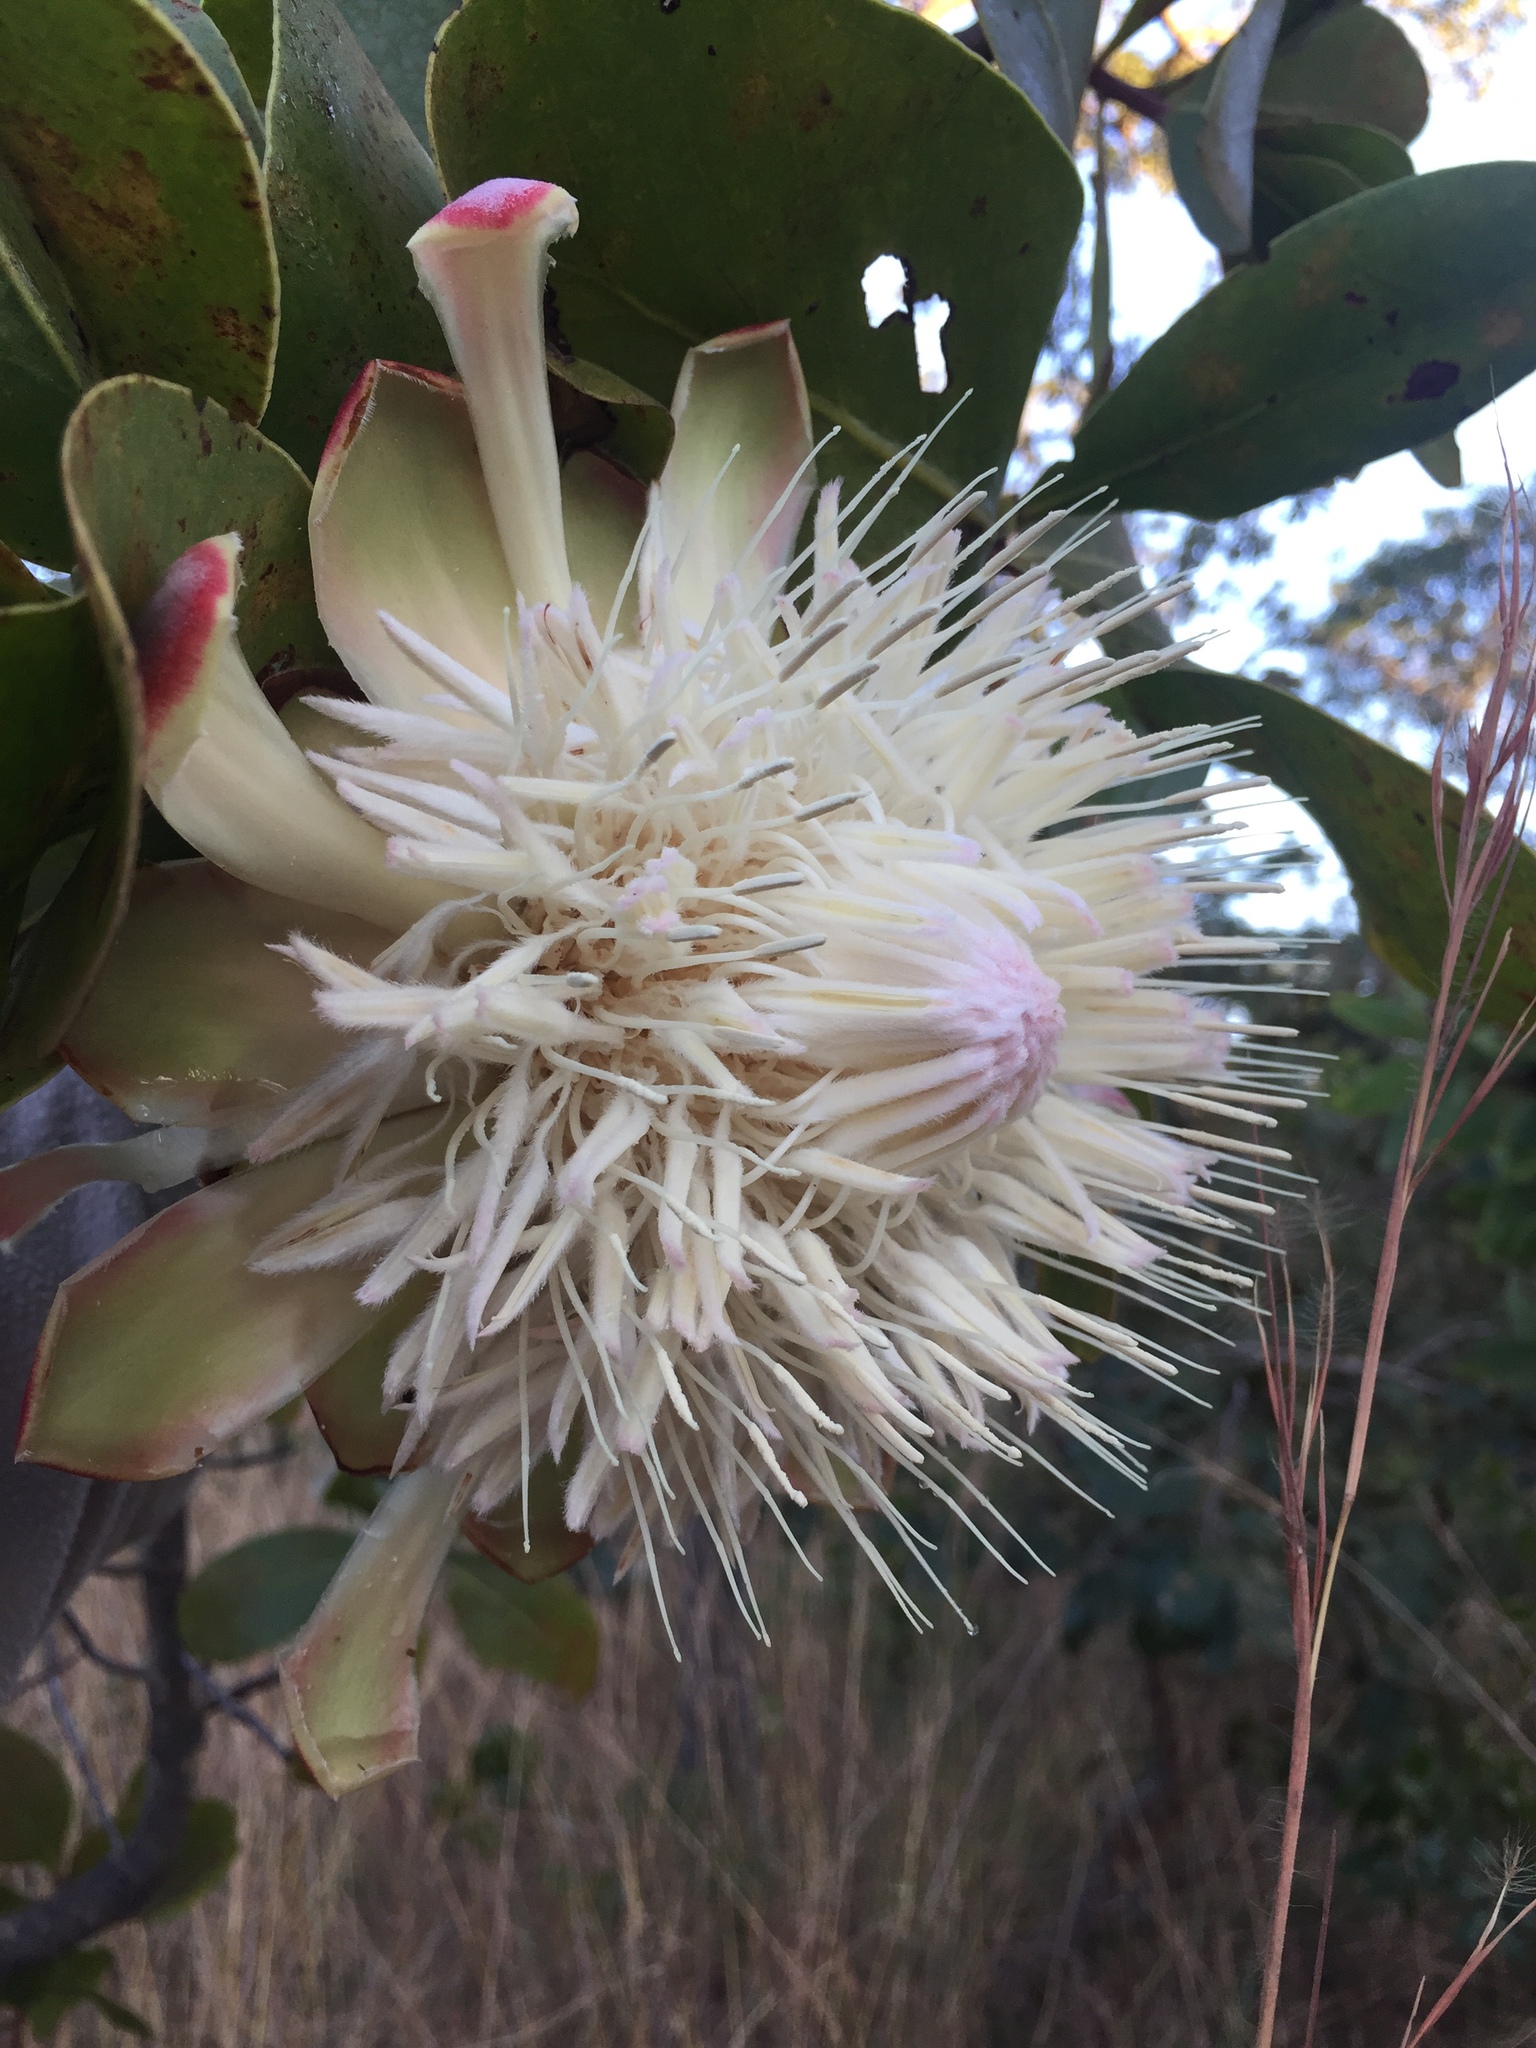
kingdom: Plantae
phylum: Tracheophyta
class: Magnoliopsida
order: Proteales
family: Proteaceae
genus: Protea
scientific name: Protea angolensis
